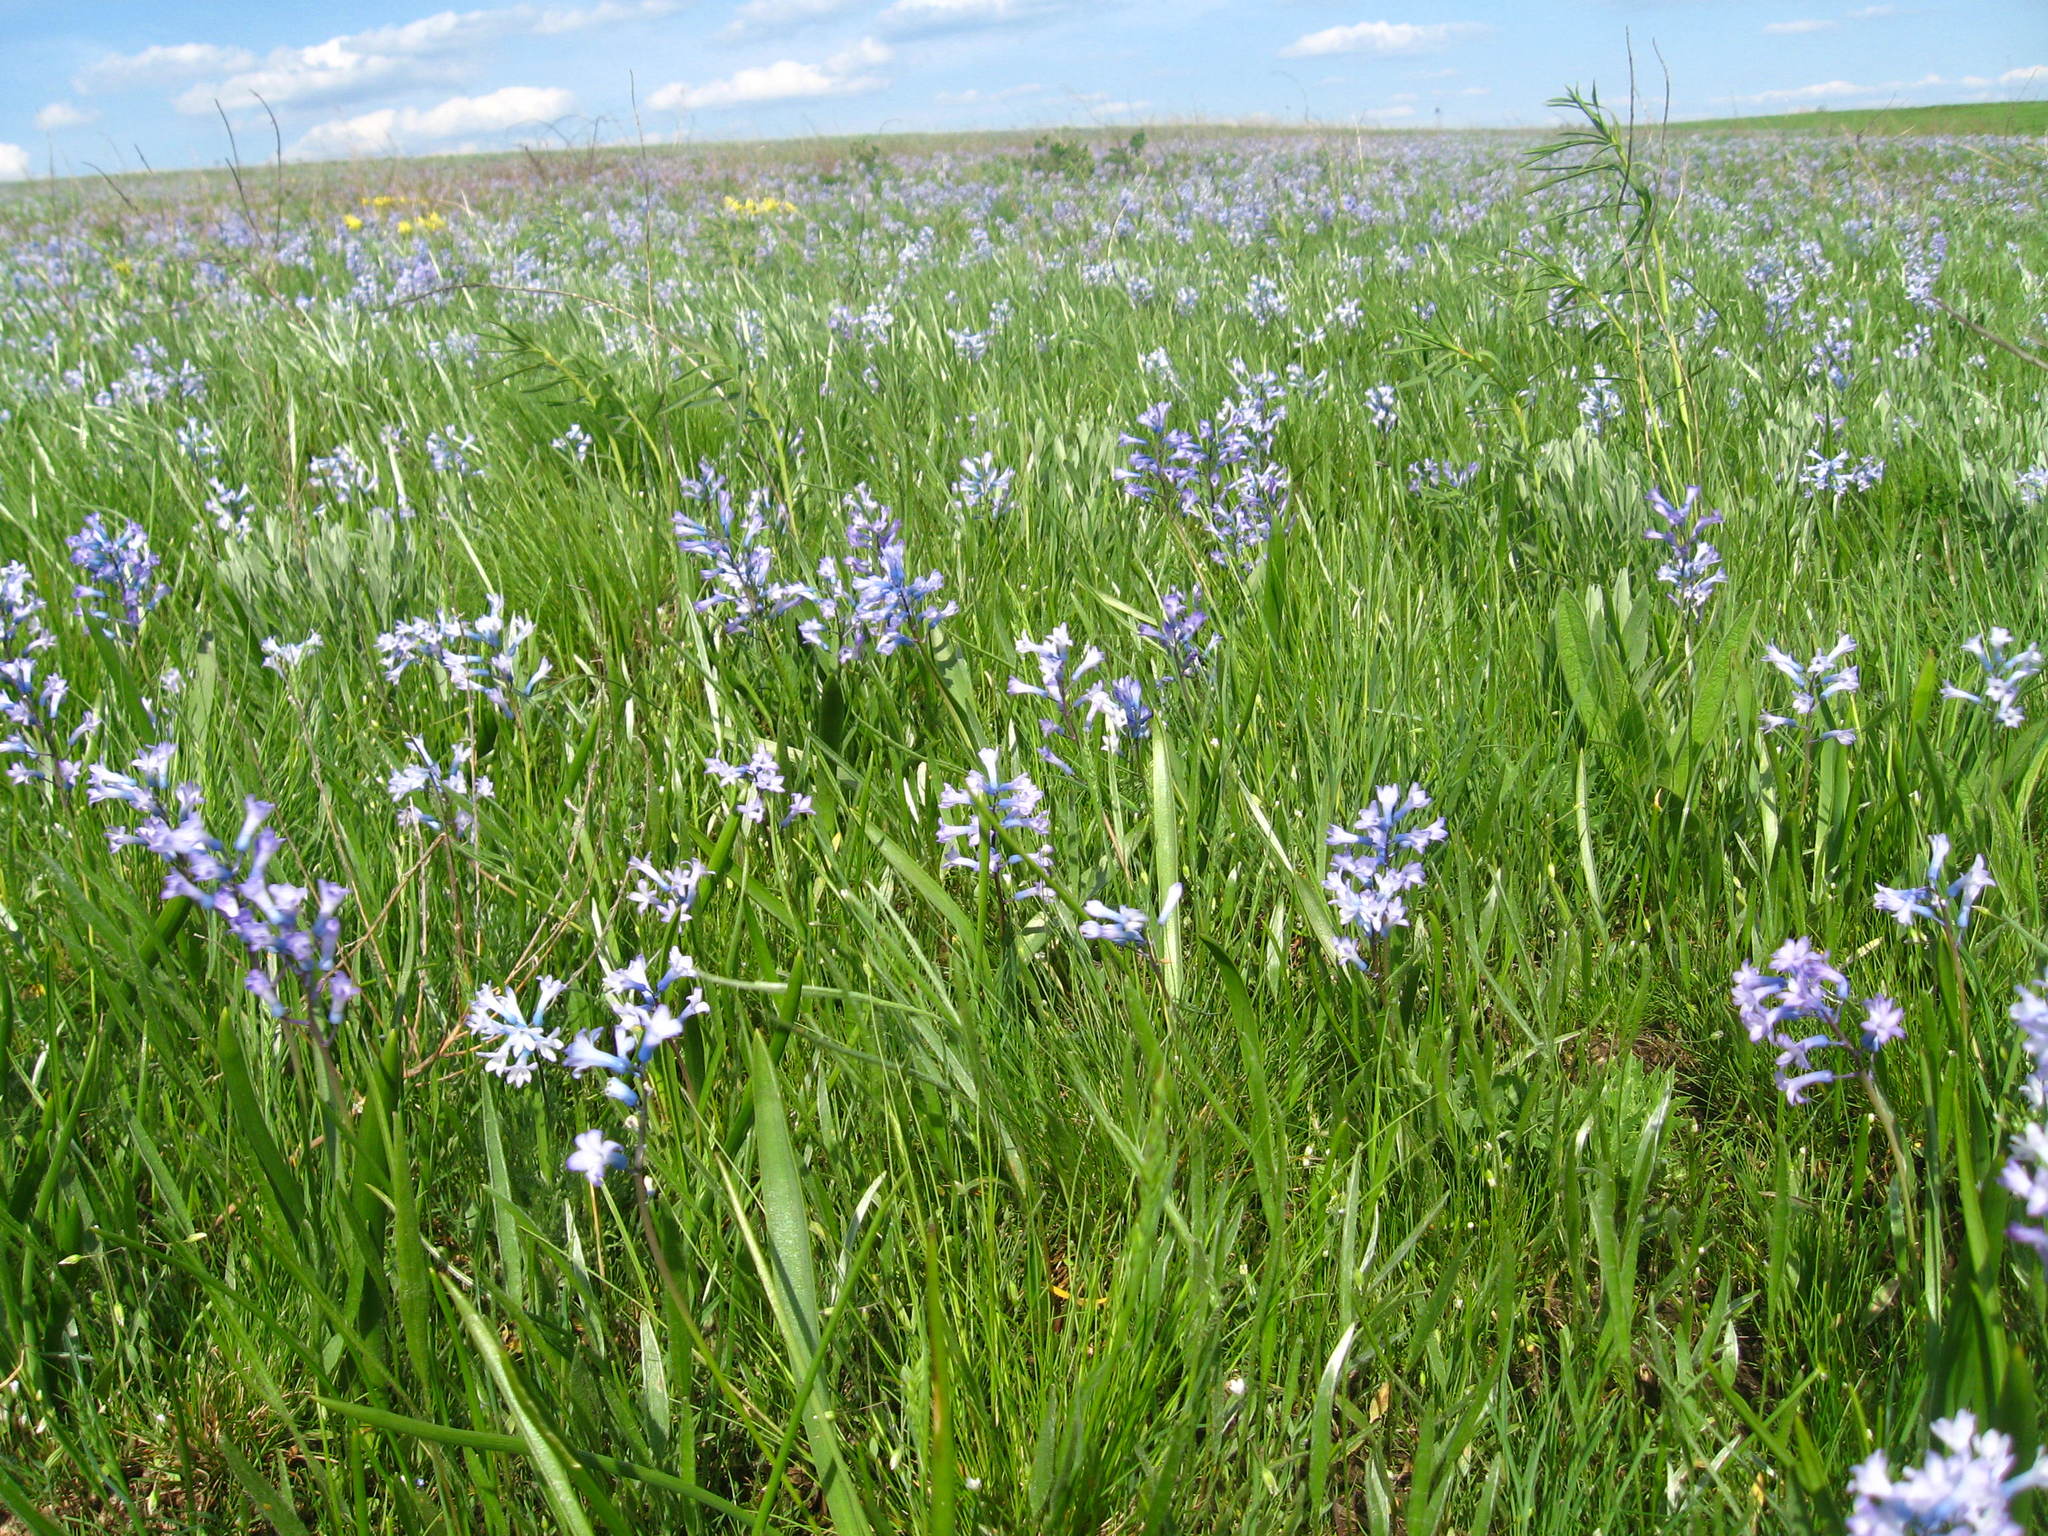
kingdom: Plantae
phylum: Tracheophyta
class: Liliopsida
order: Asparagales
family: Asparagaceae
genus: Hyacinthella
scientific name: Hyacinthella pallasiana
